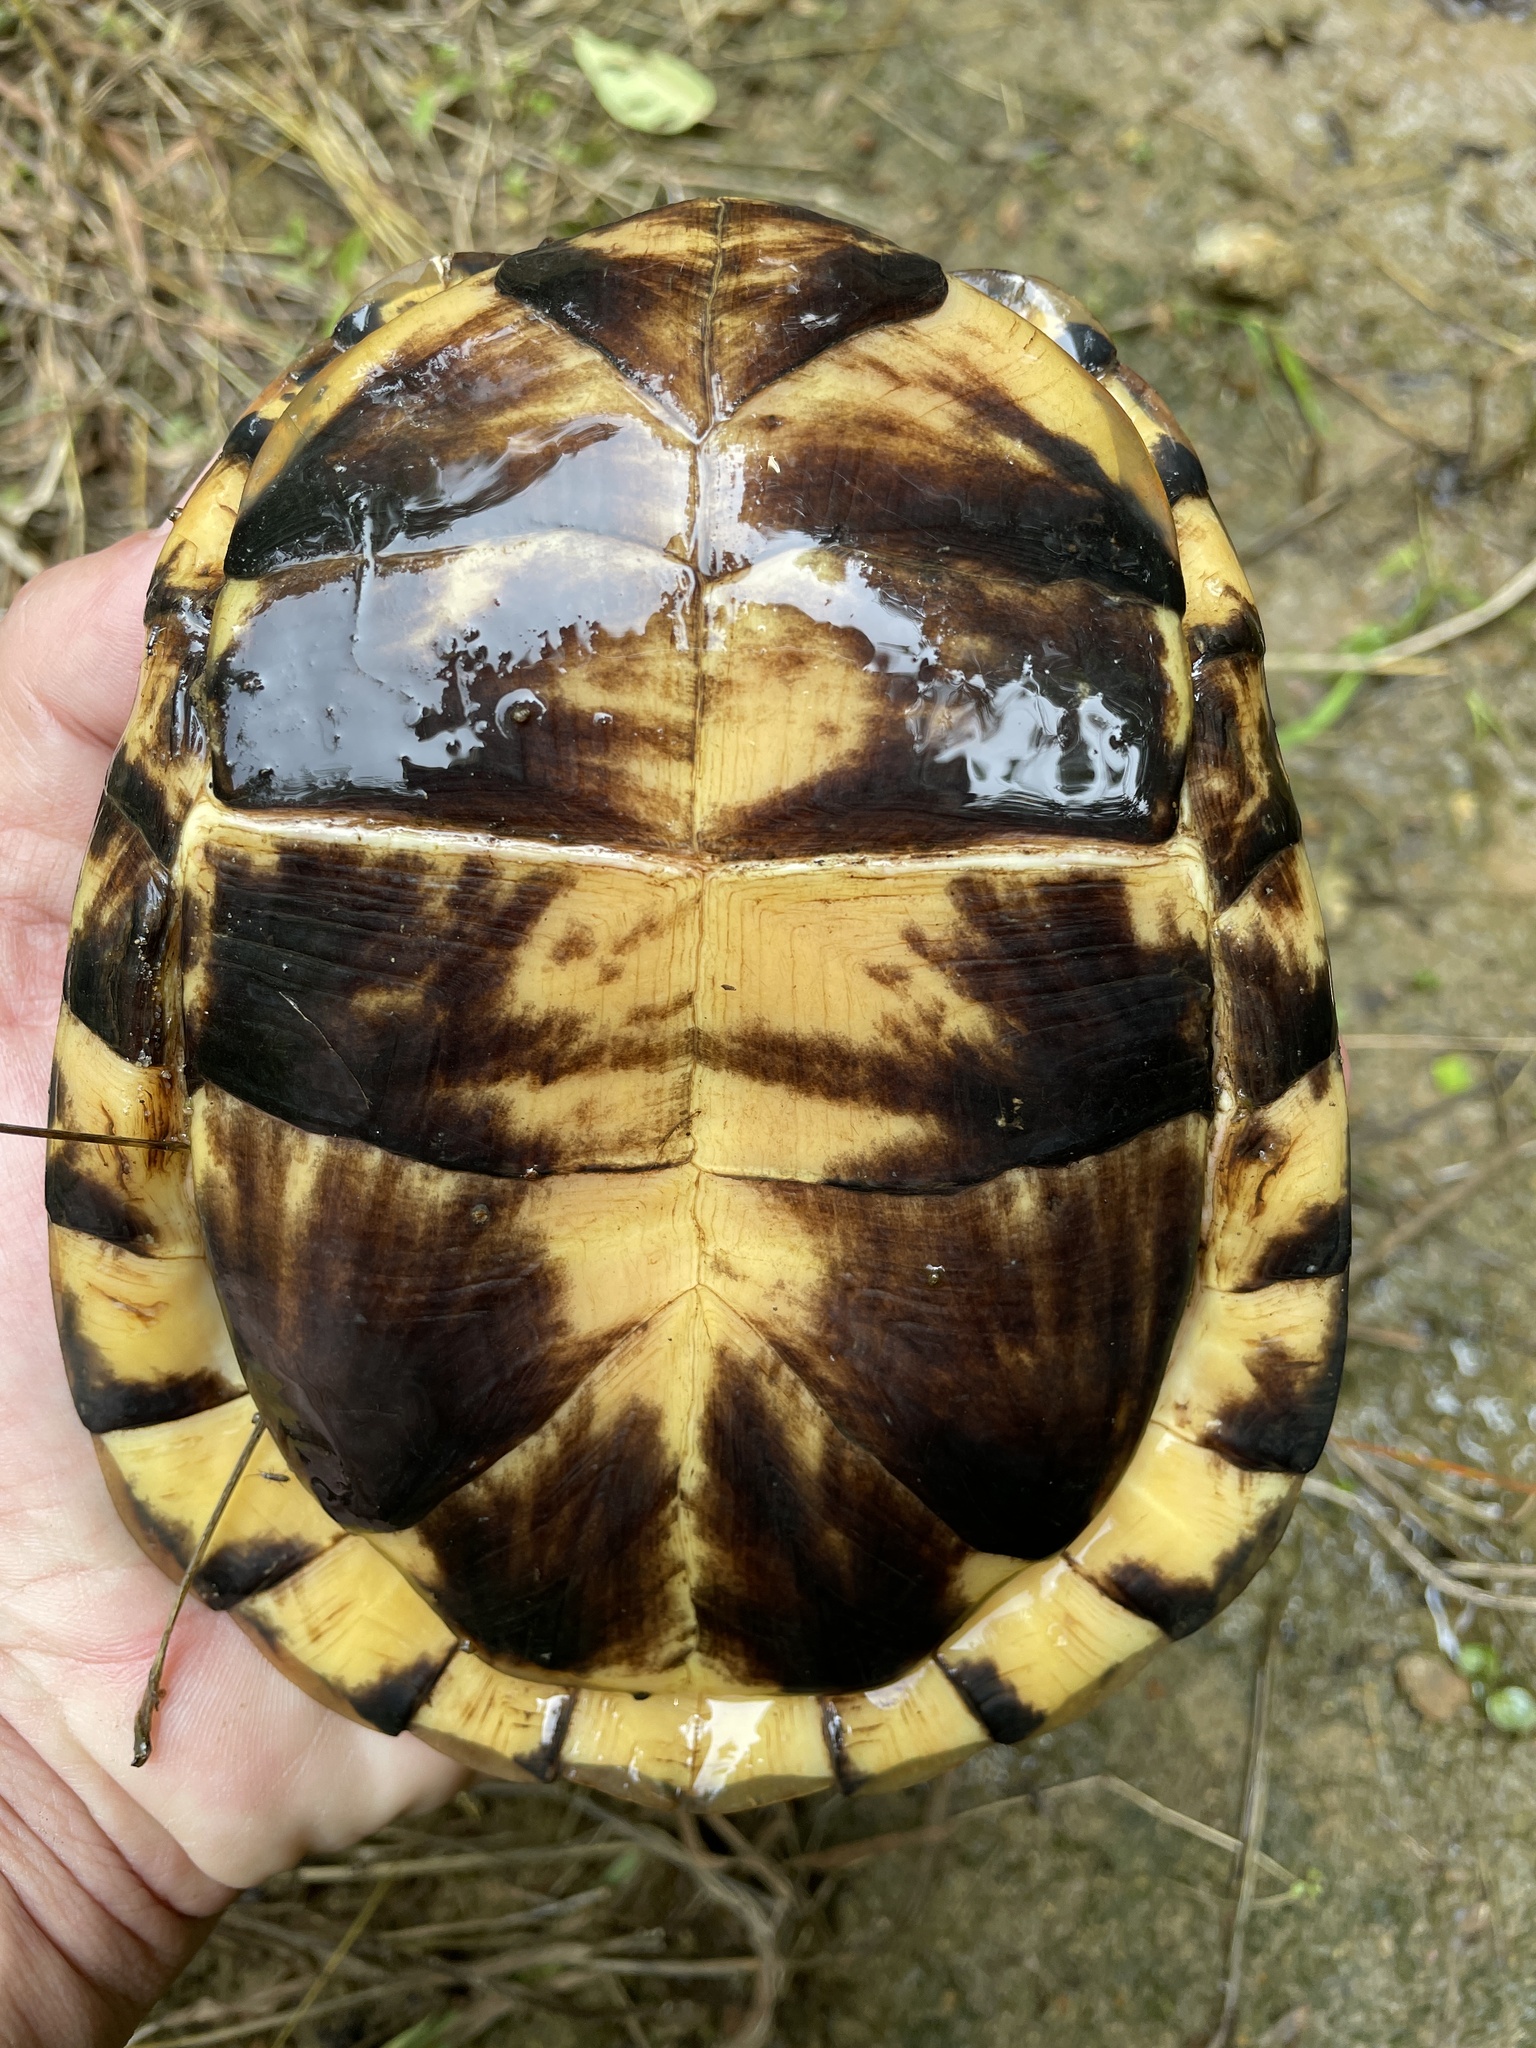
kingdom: Animalia
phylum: Chordata
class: Testudines
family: Emydidae
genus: Terrapene
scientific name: Terrapene carolina
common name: Common box turtle
